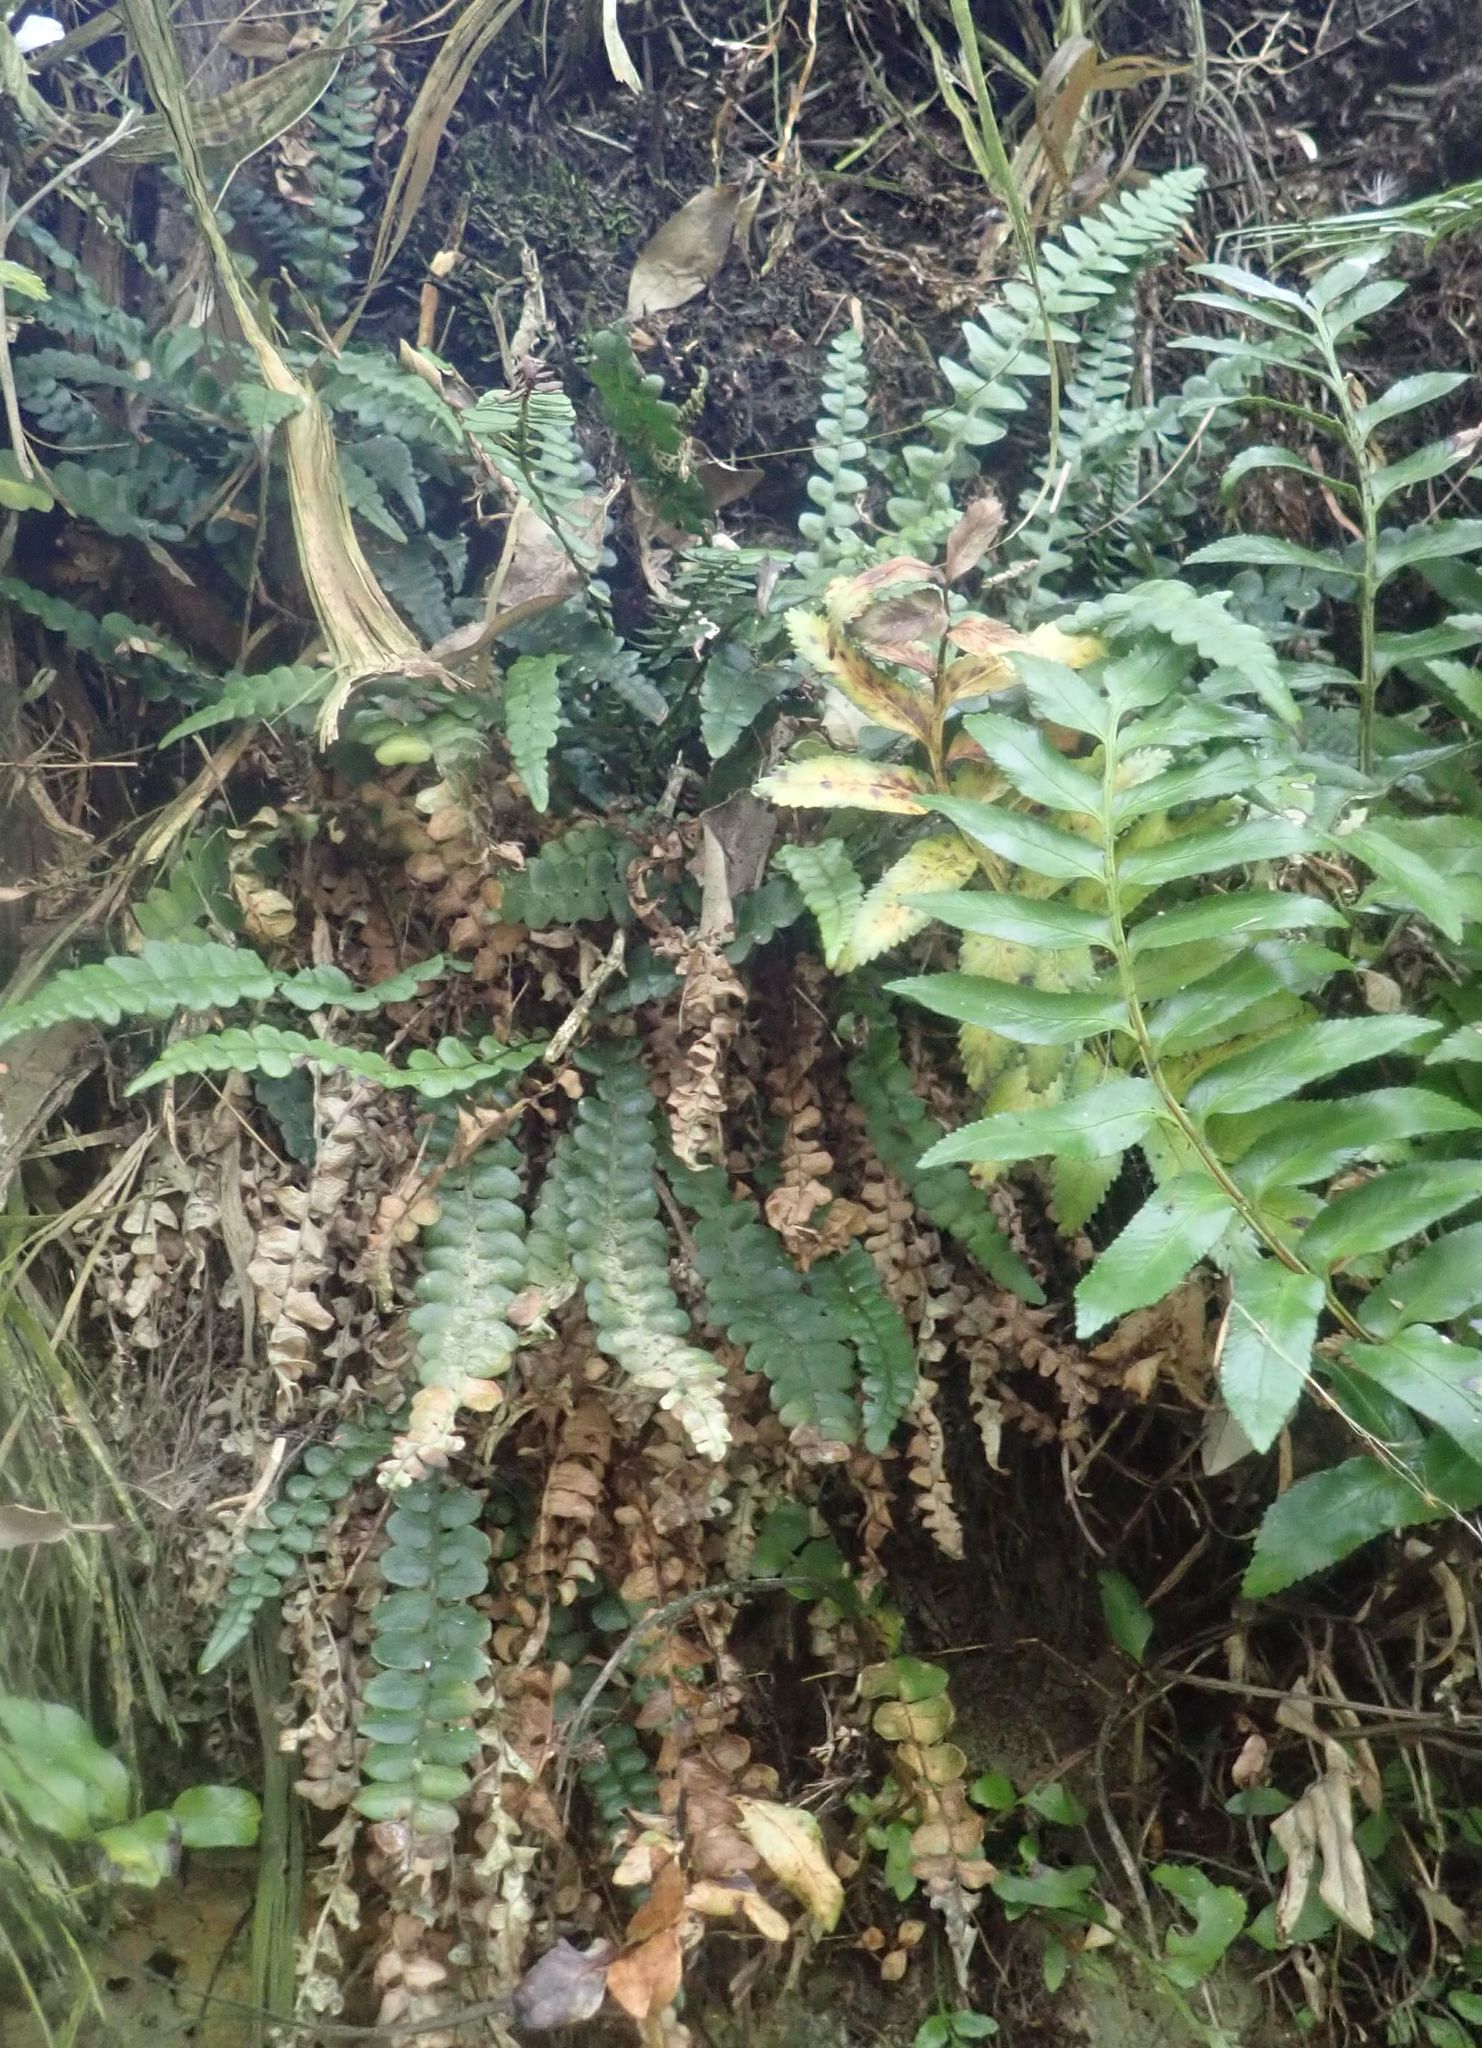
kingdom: Plantae
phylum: Tracheophyta
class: Polypodiopsida
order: Polypodiales
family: Blechnaceae
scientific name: Blechnaceae
